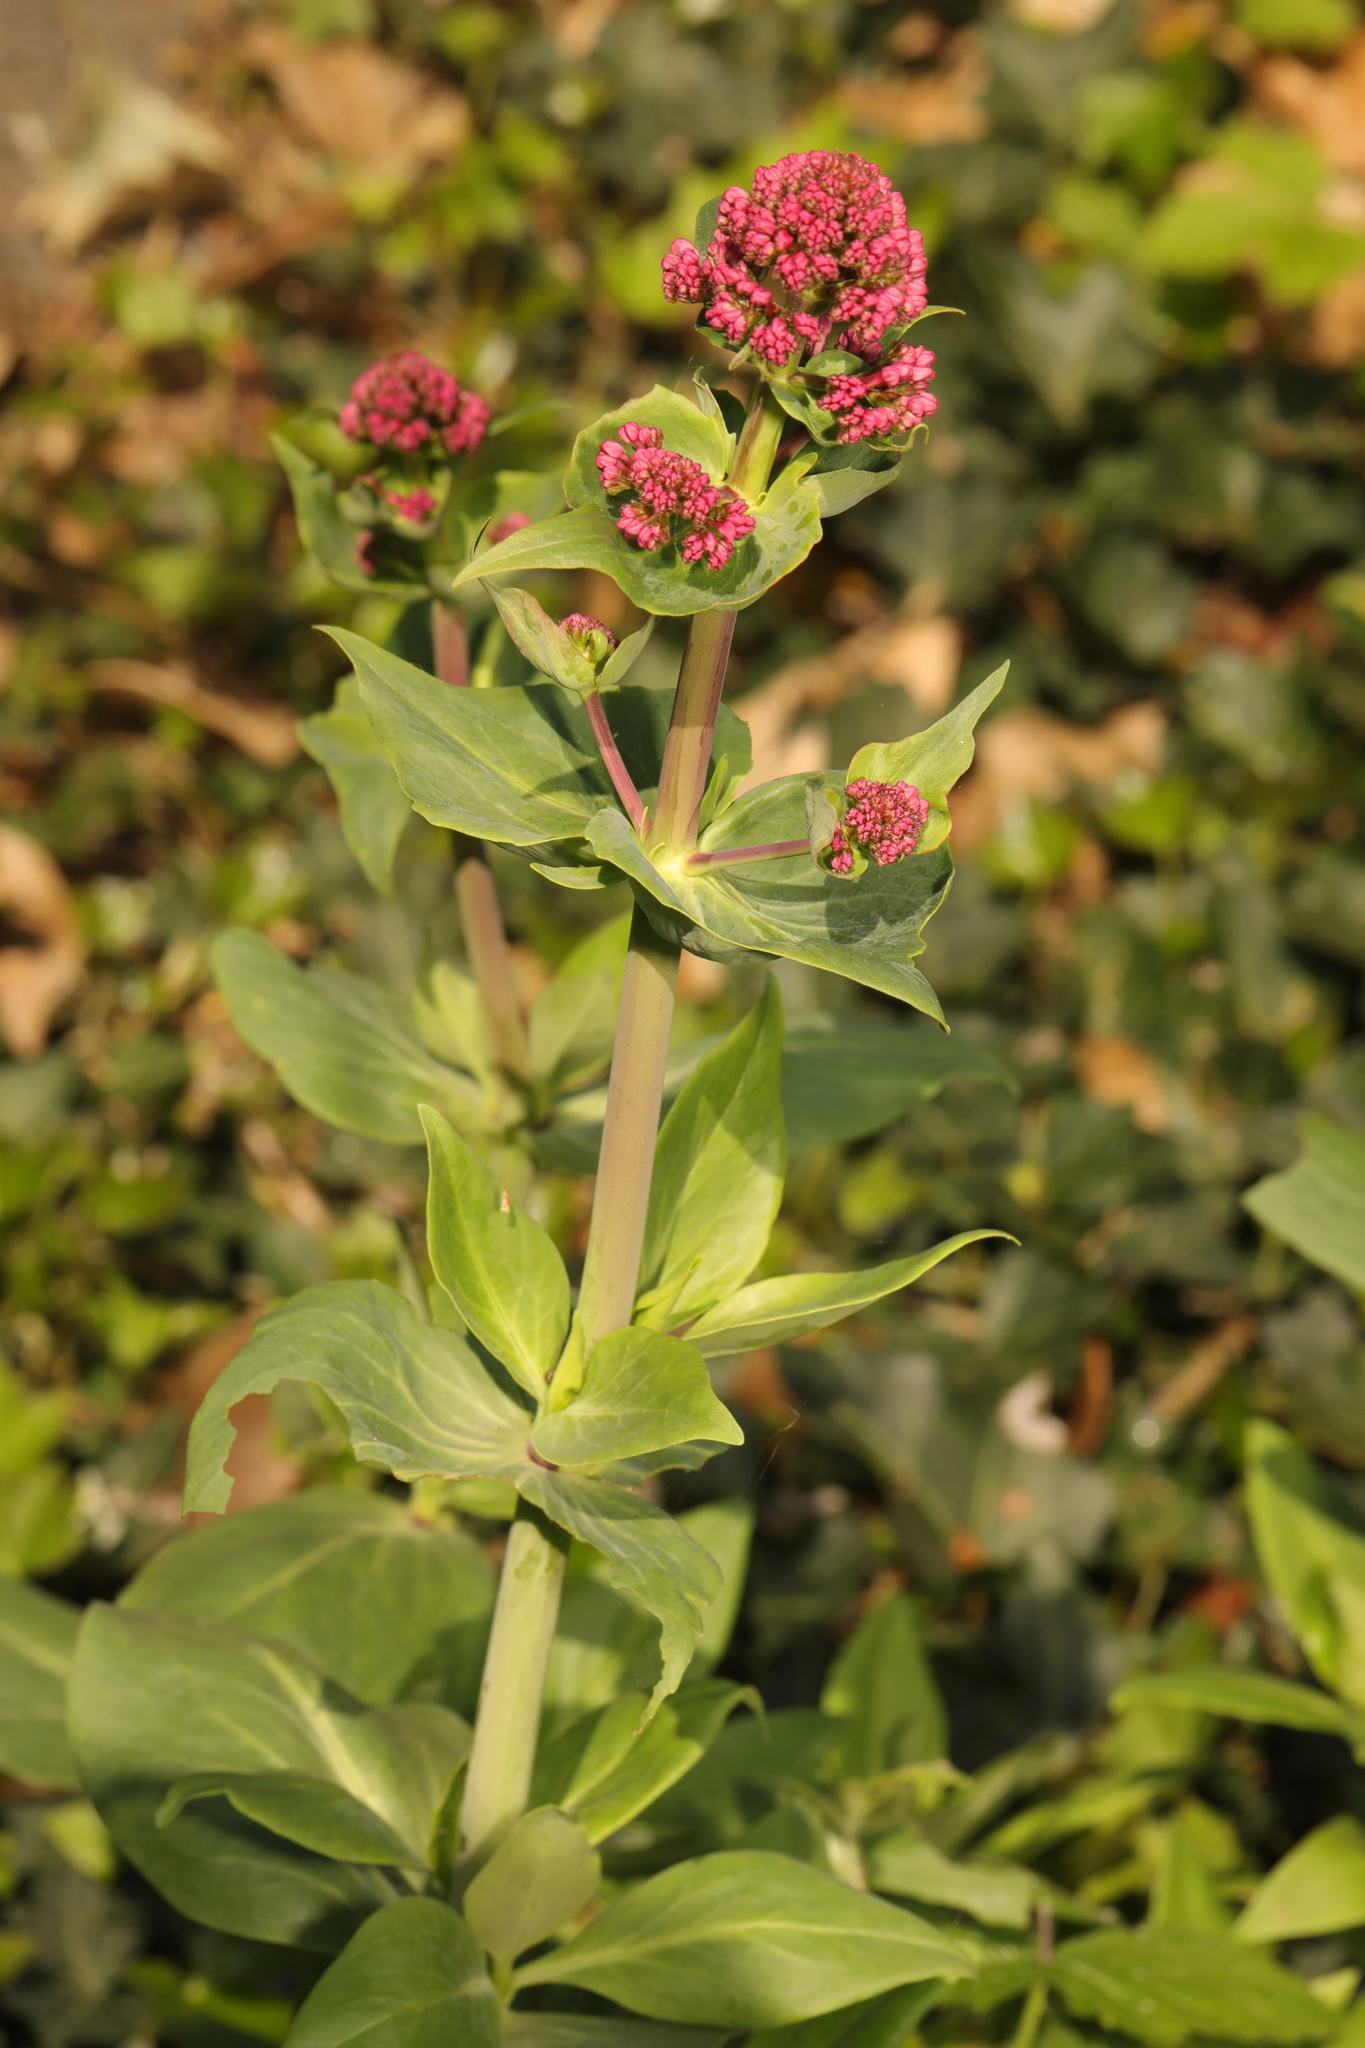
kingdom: Plantae
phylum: Tracheophyta
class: Magnoliopsida
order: Dipsacales
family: Caprifoliaceae
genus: Centranthus
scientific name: Centranthus ruber
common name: Red valerian
